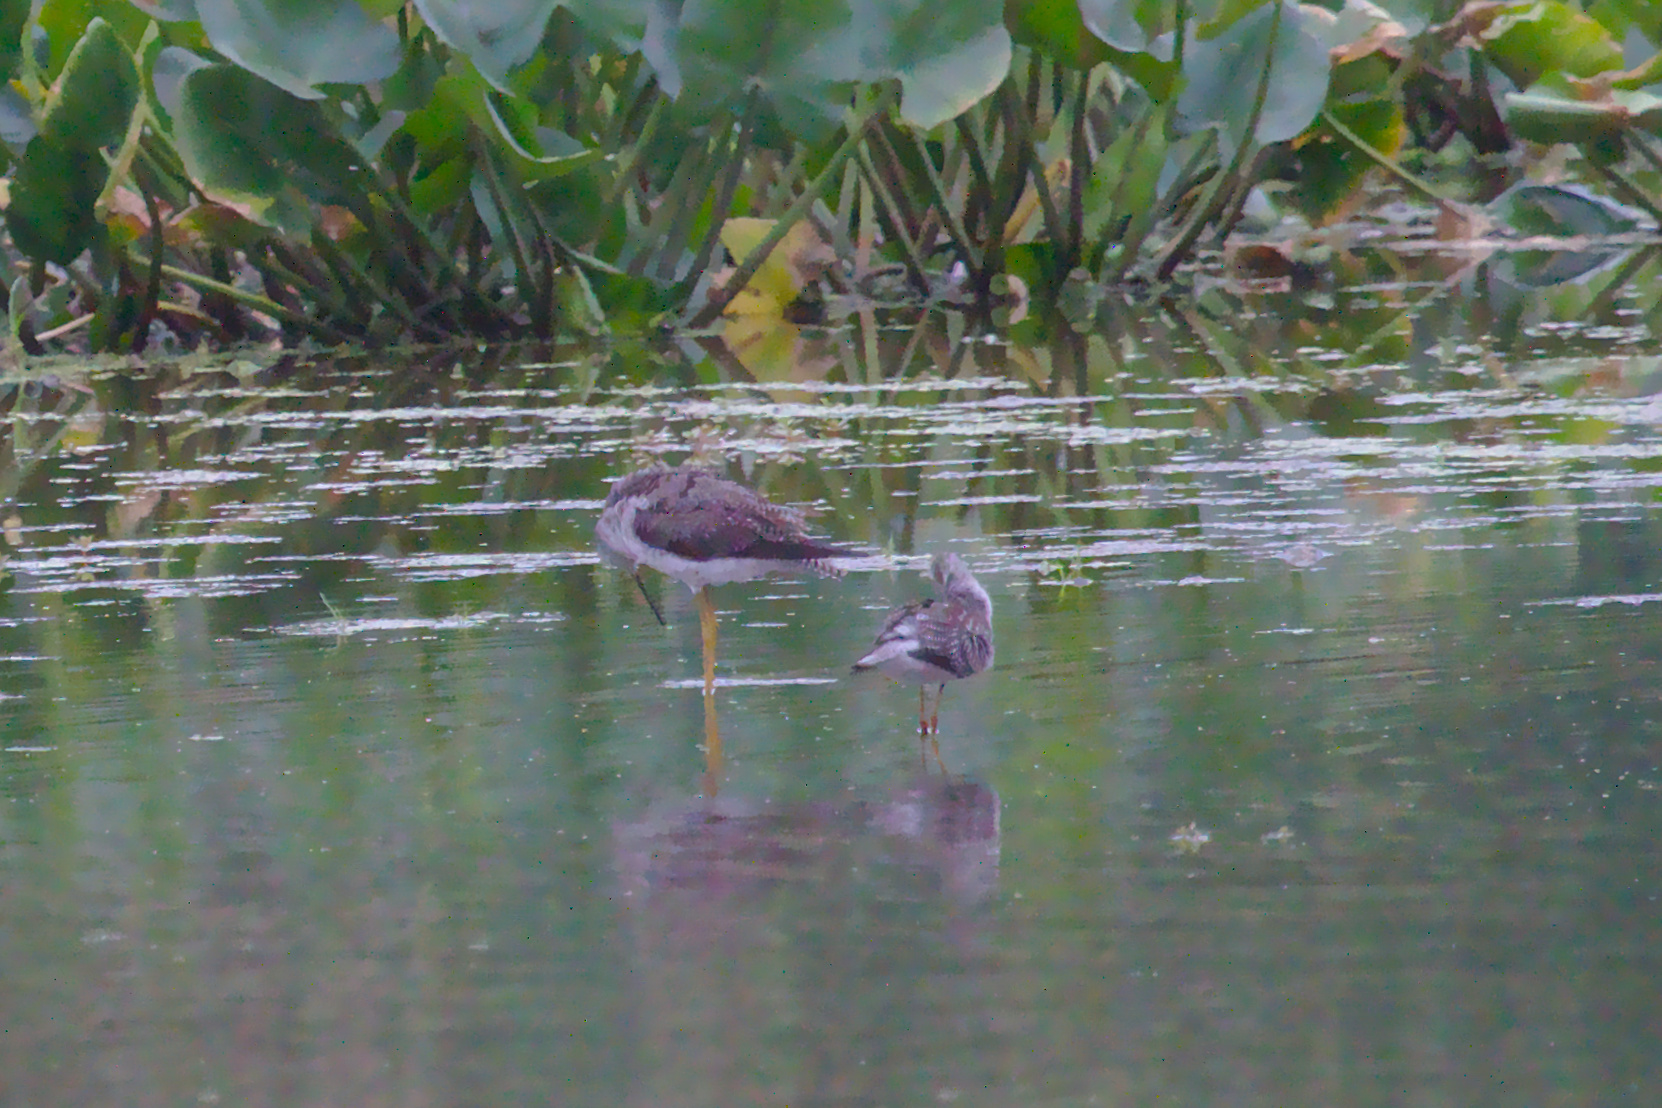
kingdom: Animalia
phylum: Chordata
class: Aves
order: Charadriiformes
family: Scolopacidae
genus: Tringa
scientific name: Tringa melanoleuca
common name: Greater yellowlegs
